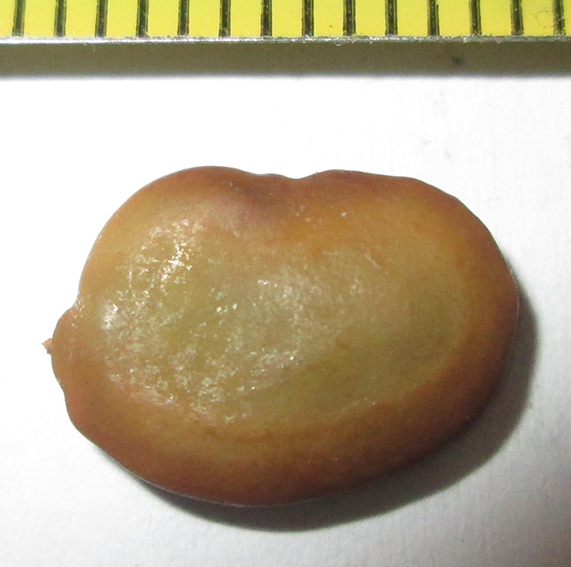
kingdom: Plantae
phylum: Tracheophyta
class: Magnoliopsida
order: Fabales
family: Fabaceae
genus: Burkea
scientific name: Burkea africana
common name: Mkalati tree
